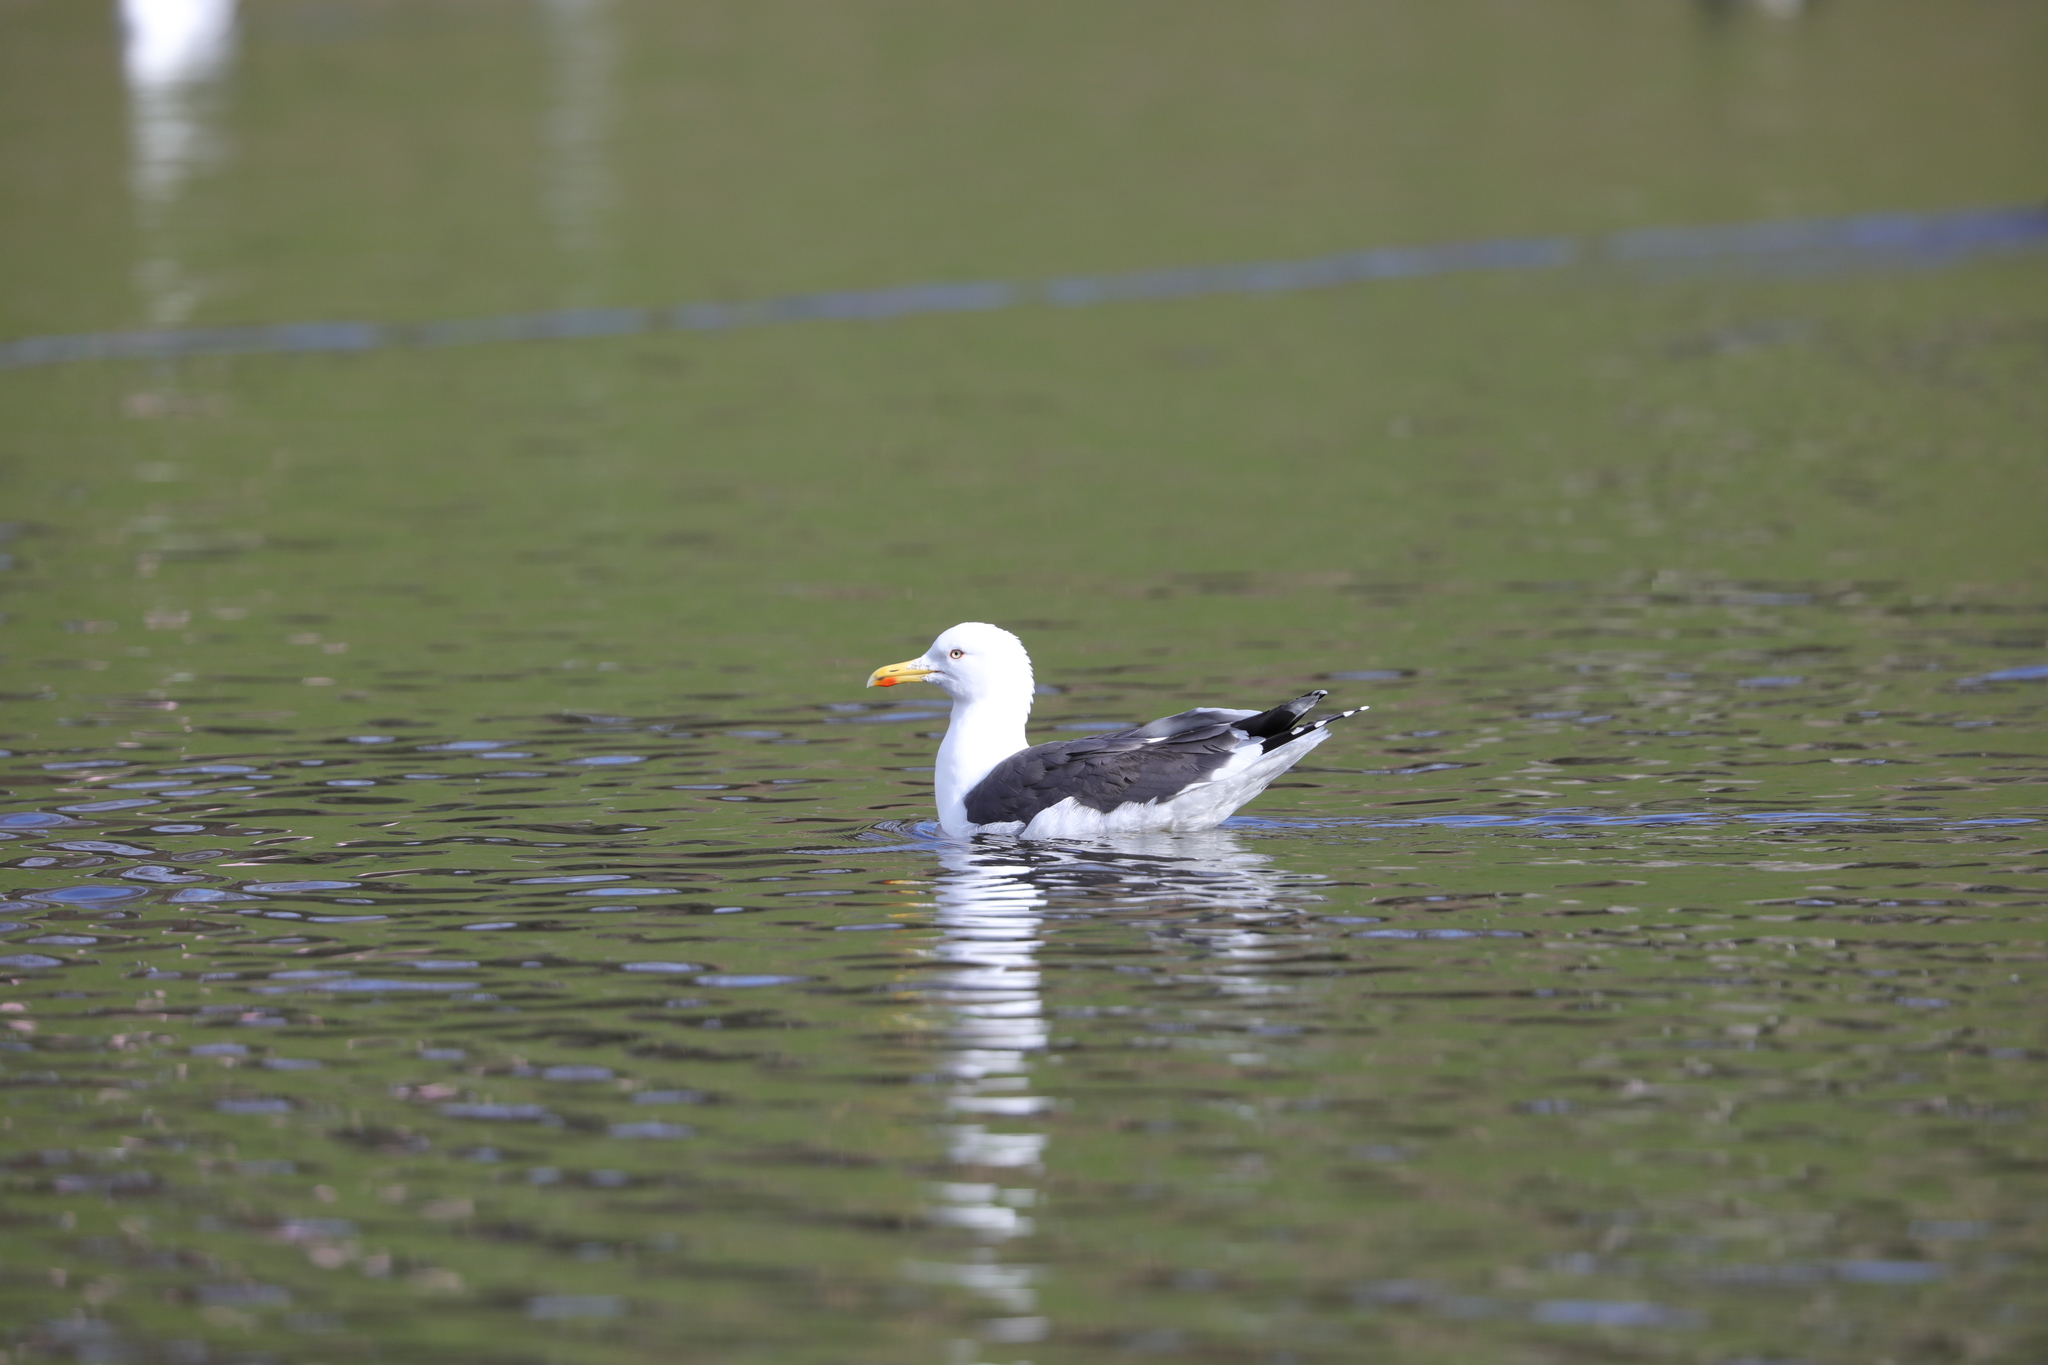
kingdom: Animalia
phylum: Chordata
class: Aves
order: Charadriiformes
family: Laridae
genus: Larus
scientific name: Larus fuscus
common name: Lesser black-backed gull
